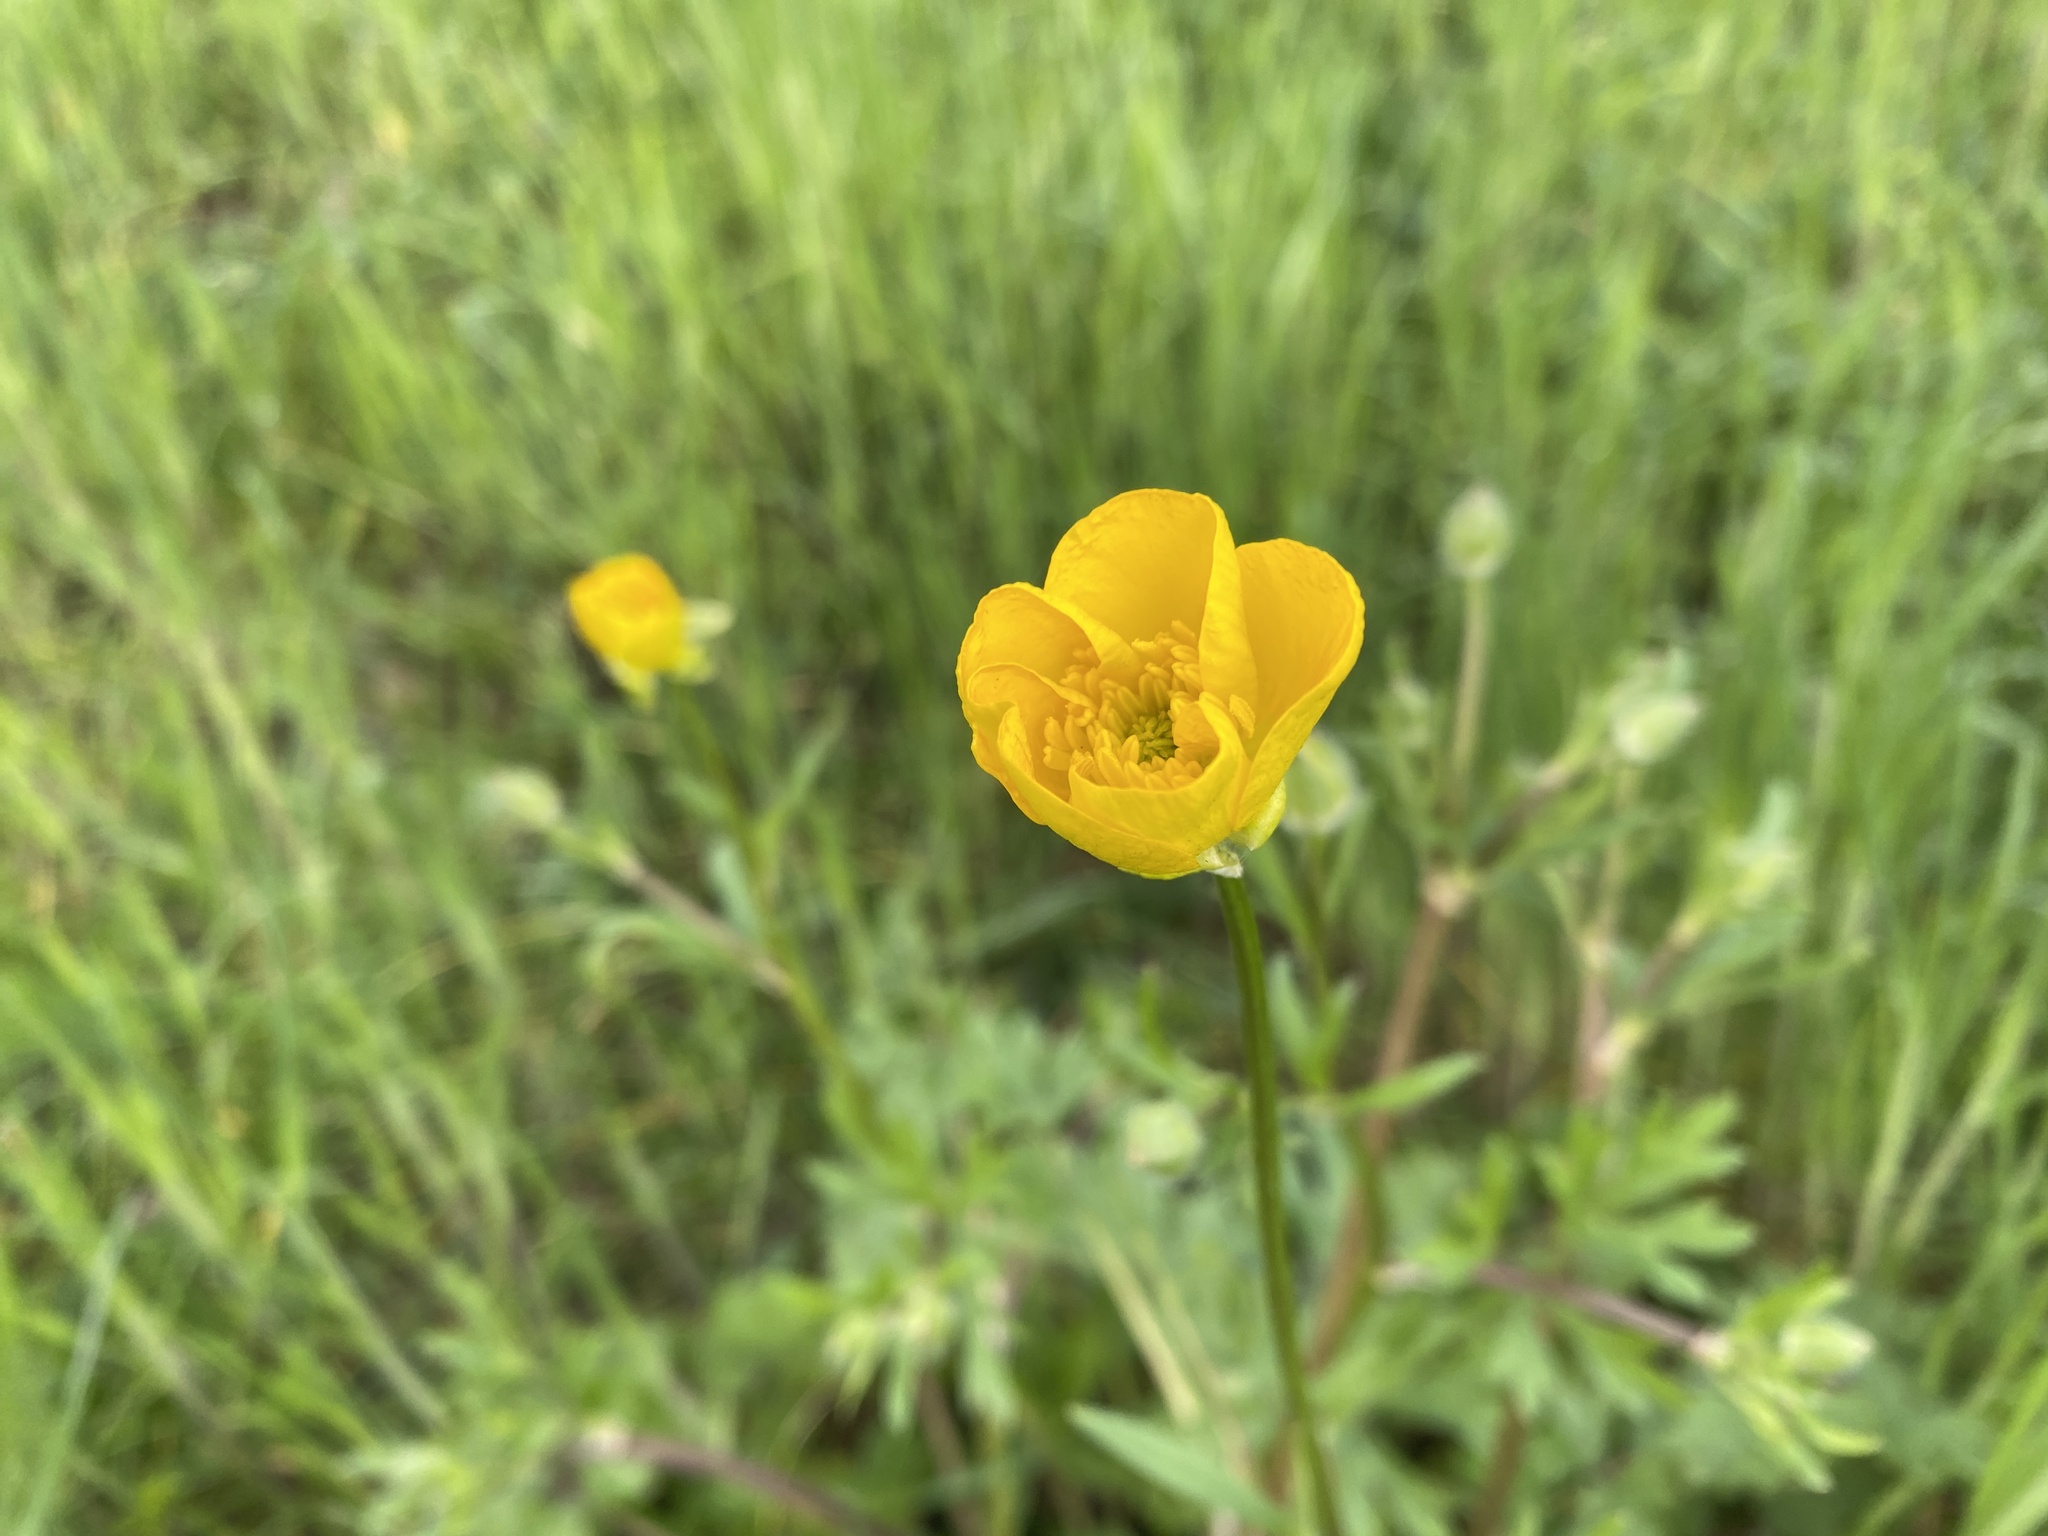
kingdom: Plantae
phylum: Tracheophyta
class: Magnoliopsida
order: Ranunculales
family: Ranunculaceae
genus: Ranunculus
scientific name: Ranunculus bulbosus
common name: Bulbous buttercup
